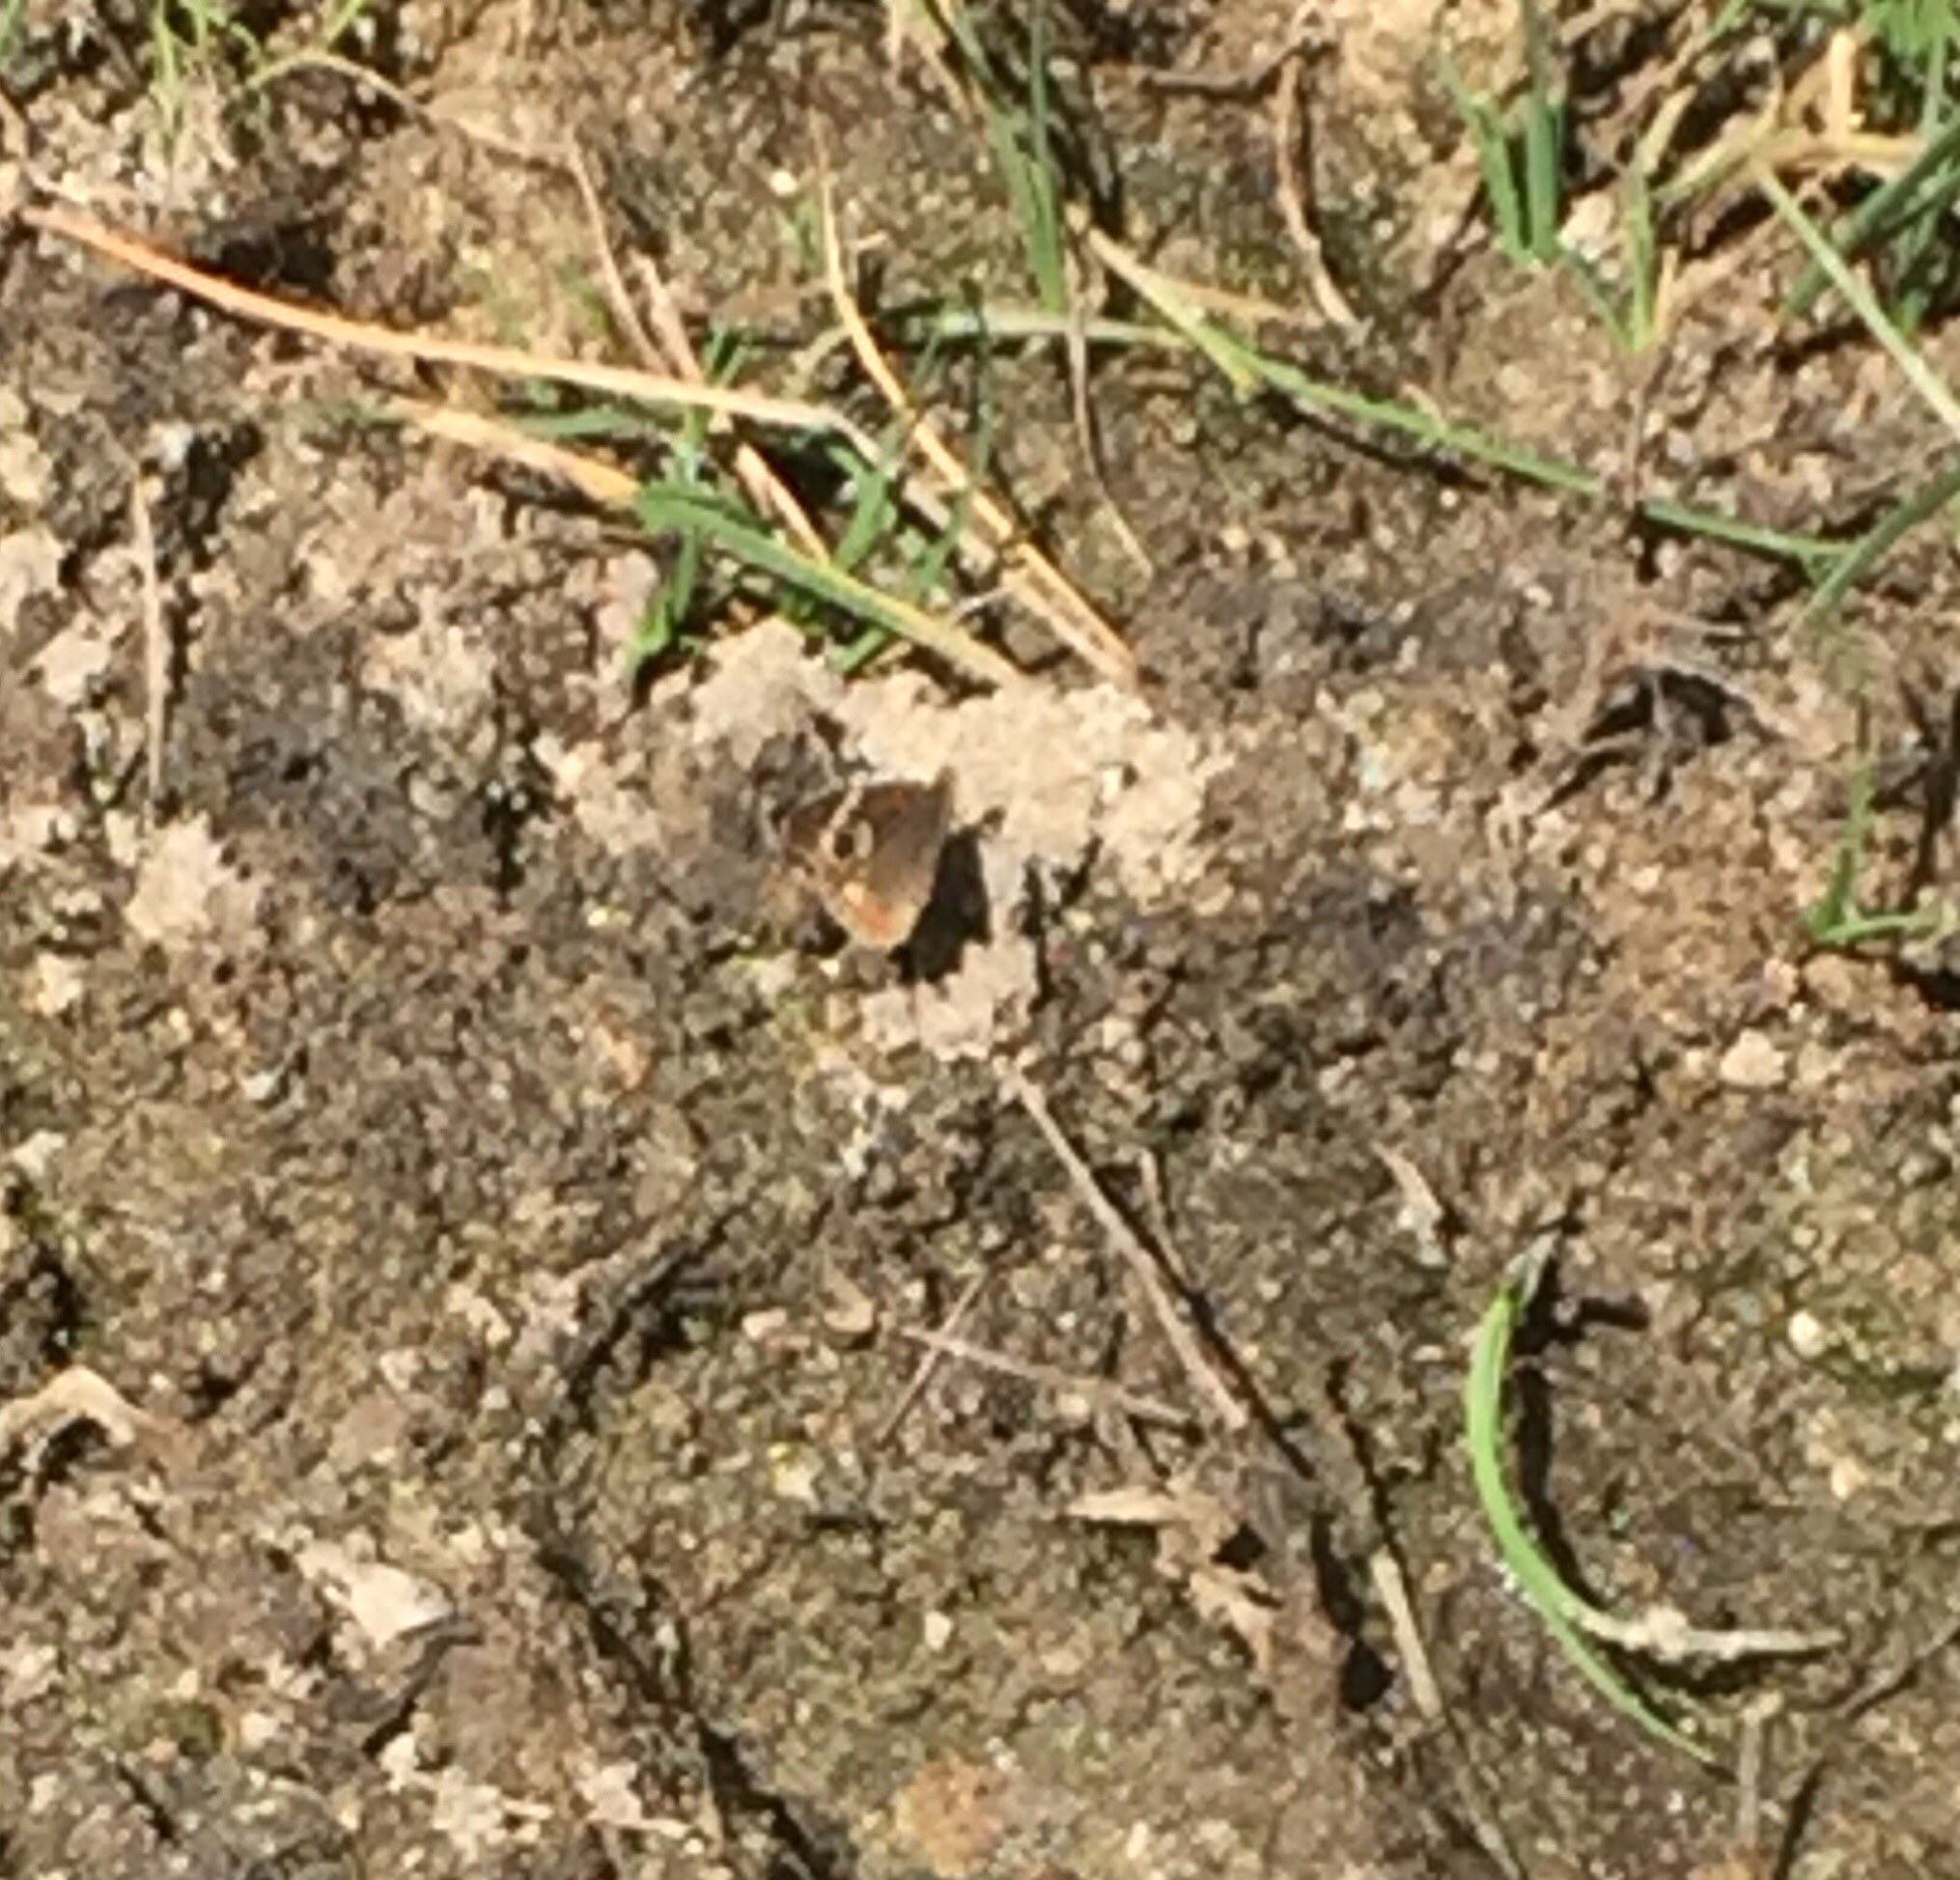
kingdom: Animalia
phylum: Arthropoda
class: Insecta
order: Lepidoptera
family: Nymphalidae
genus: Junonia
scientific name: Junonia grisea
